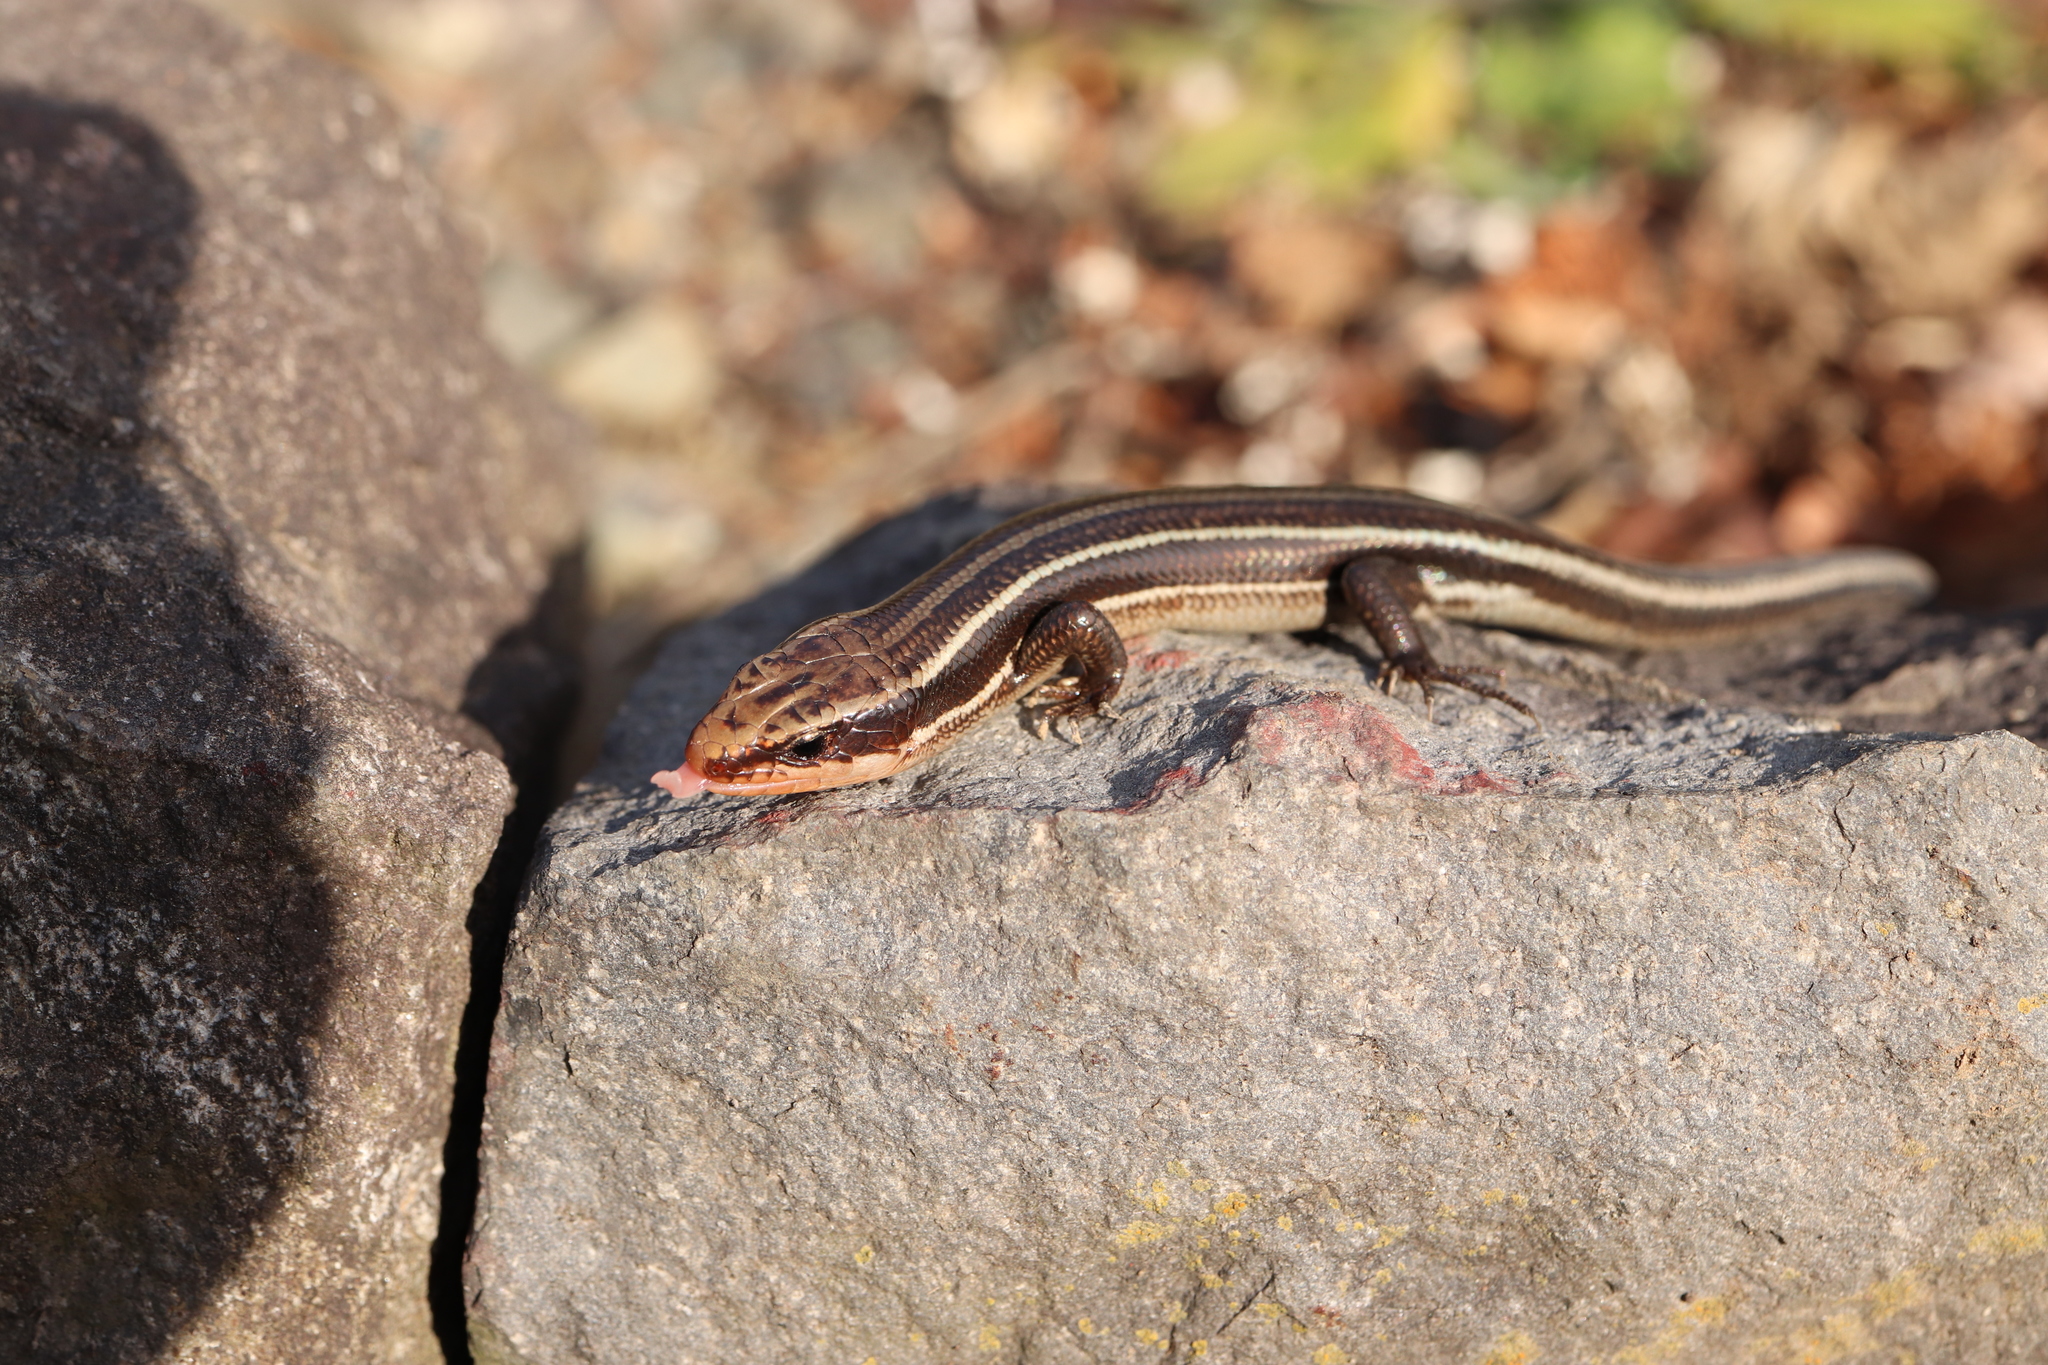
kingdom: Animalia
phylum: Chordata
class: Squamata
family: Scincidae
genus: Plestiodon
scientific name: Plestiodon finitimus
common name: Far eastern skink
